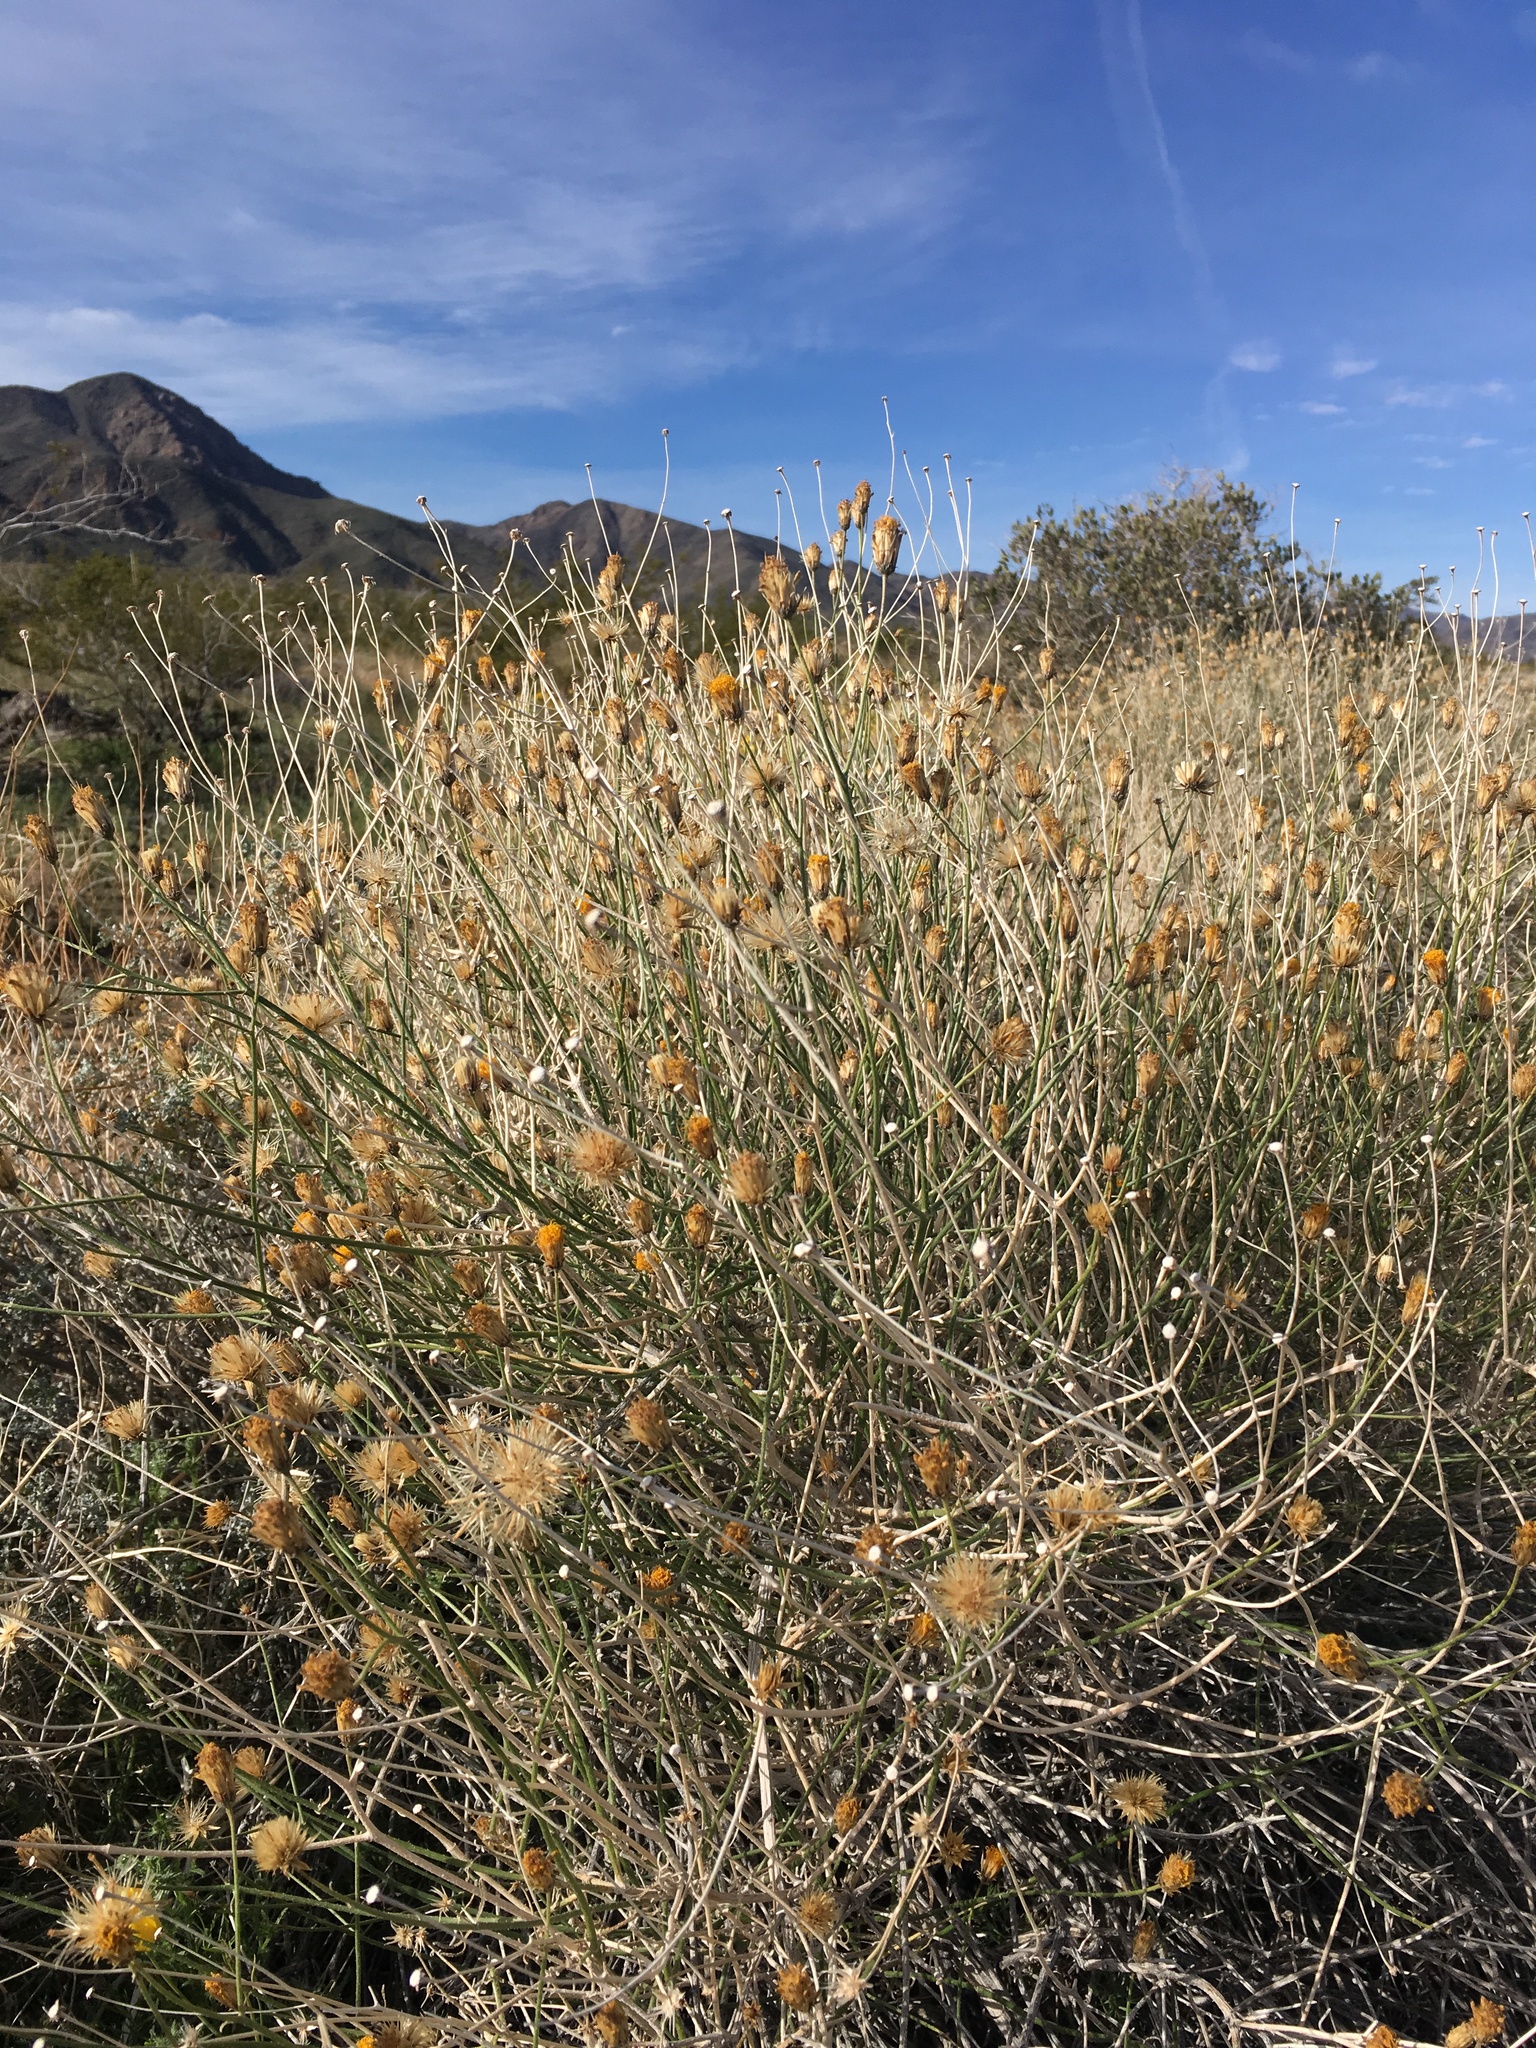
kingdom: Plantae
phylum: Tracheophyta
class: Magnoliopsida
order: Asterales
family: Asteraceae
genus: Bebbia
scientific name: Bebbia juncea
